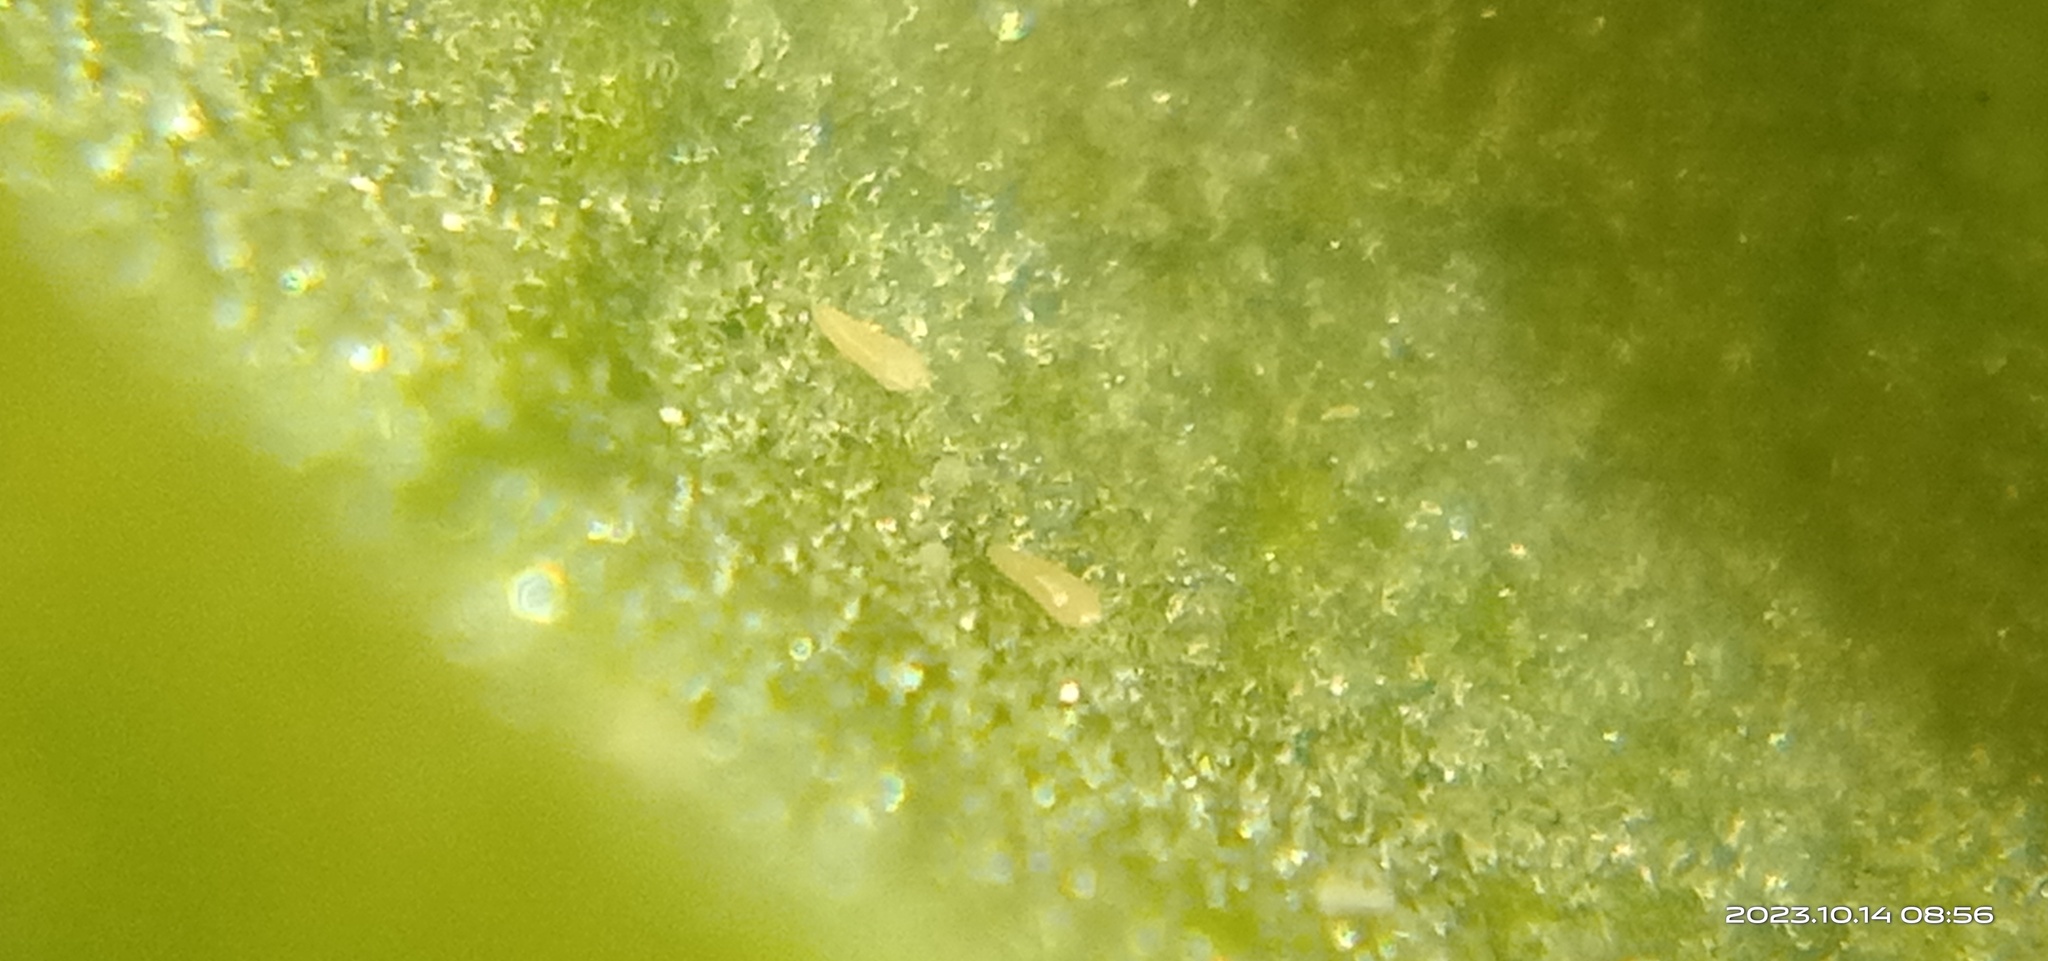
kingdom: Animalia
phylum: Arthropoda
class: Arachnida
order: Trombidiformes
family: Eriophyidae
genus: Phyllocoptruta
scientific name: Phyllocoptruta oleivora
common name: Citrus rust mite
